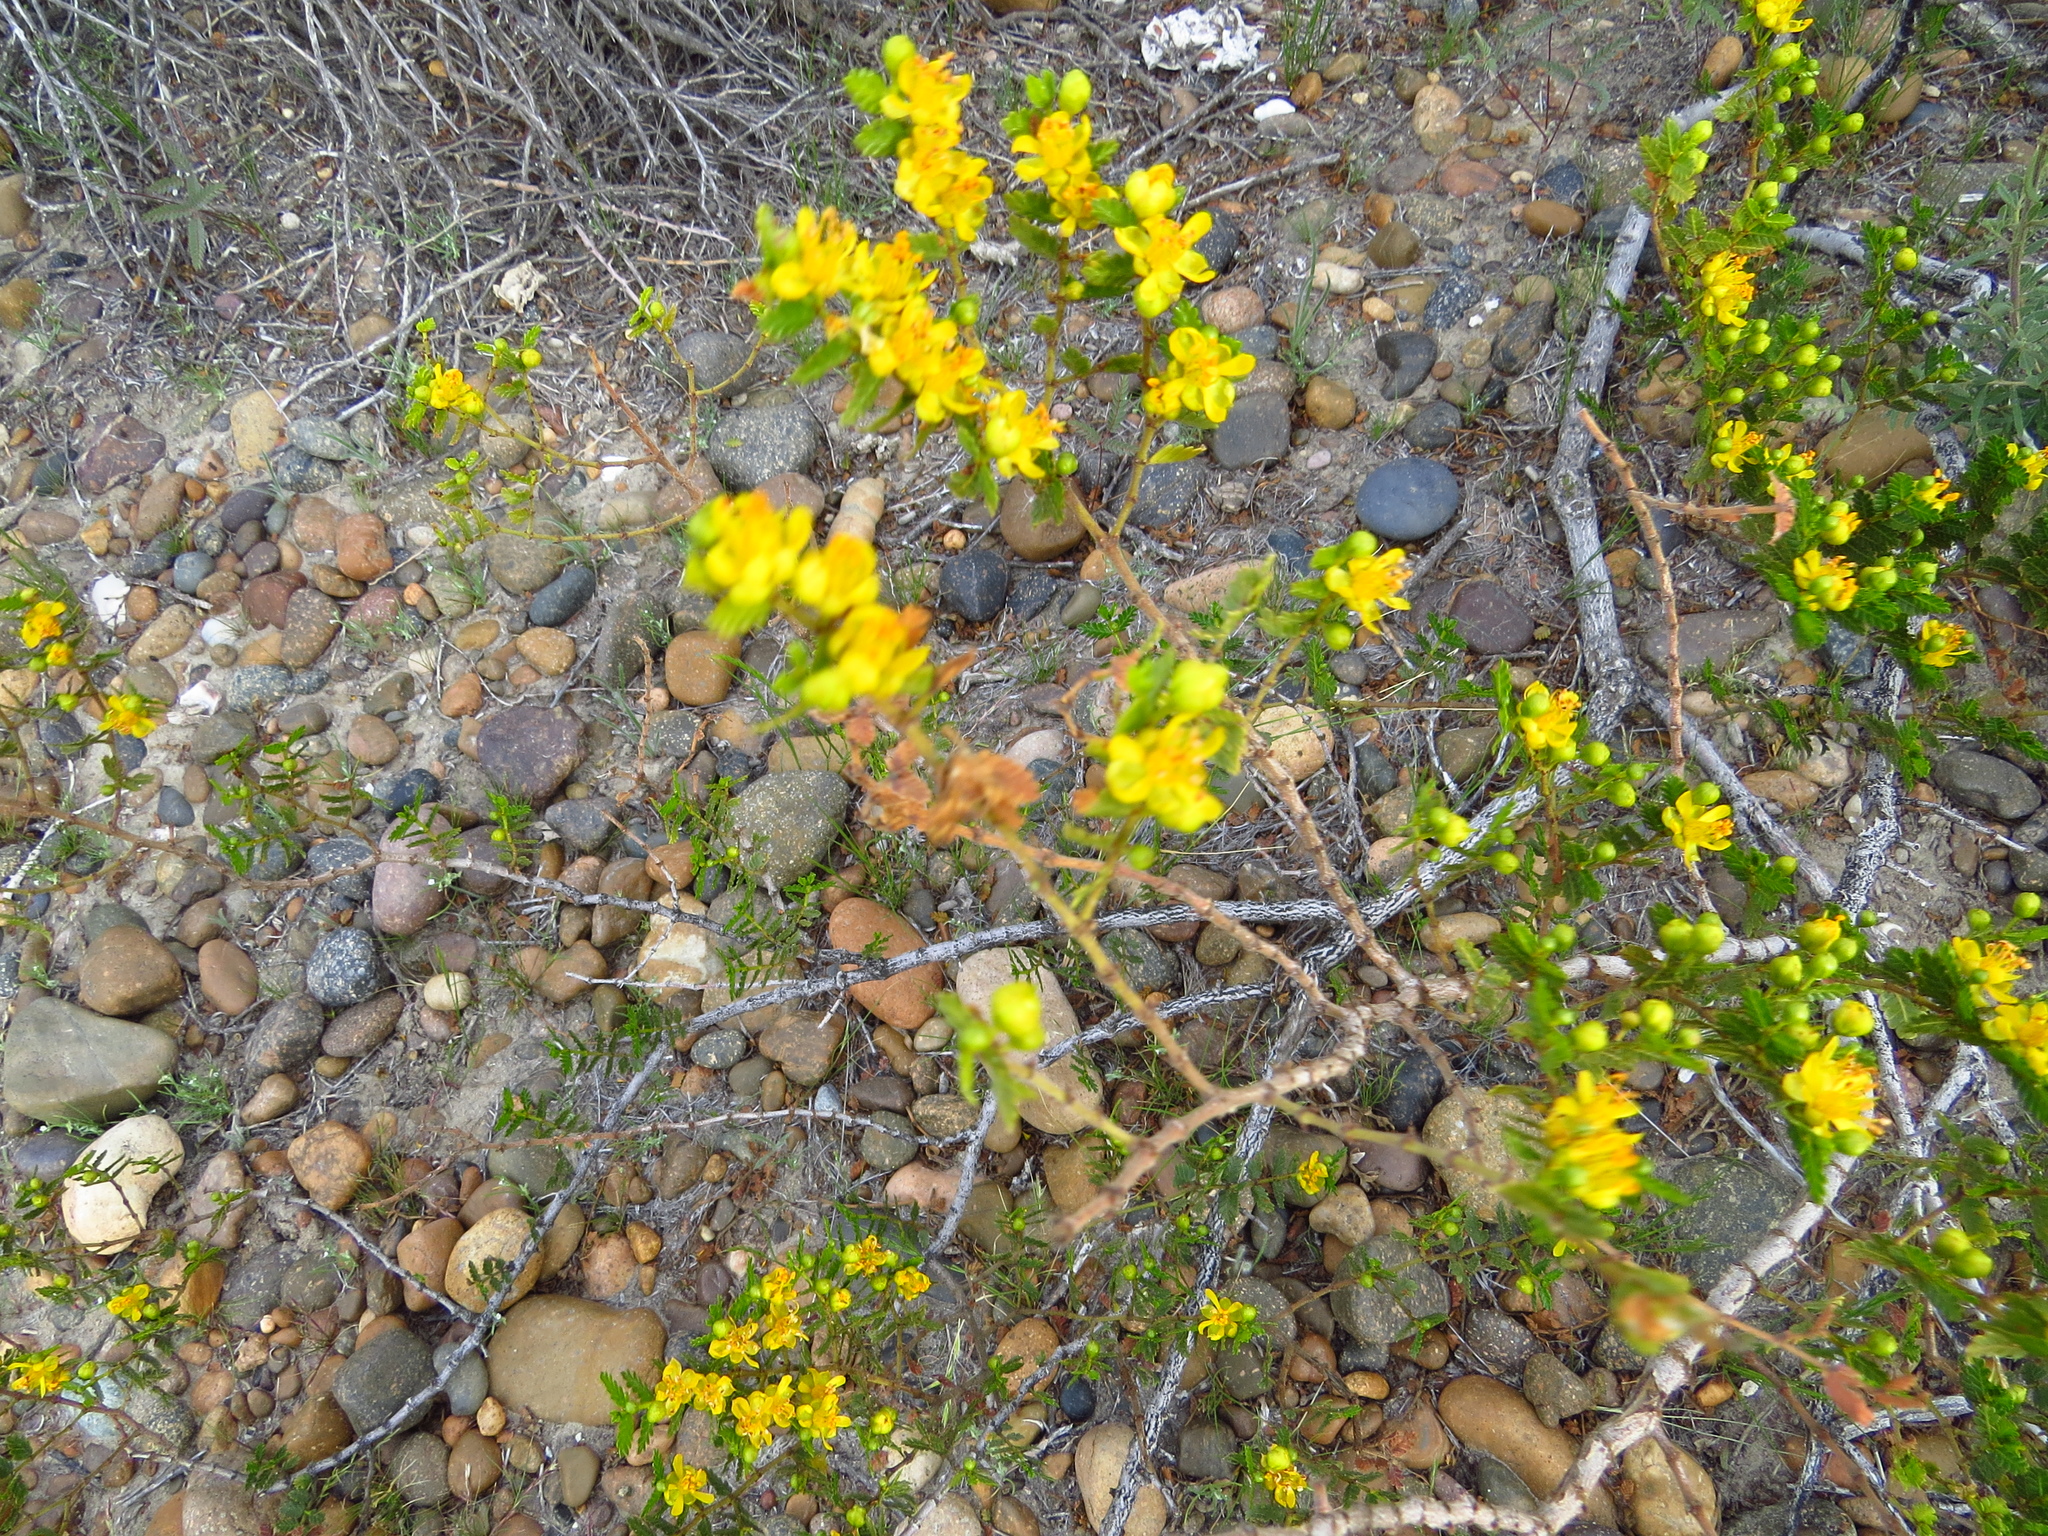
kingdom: Plantae
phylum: Tracheophyta
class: Magnoliopsida
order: Zygophyllales
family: Zygophyllaceae
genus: Larrea
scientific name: Larrea nitida
